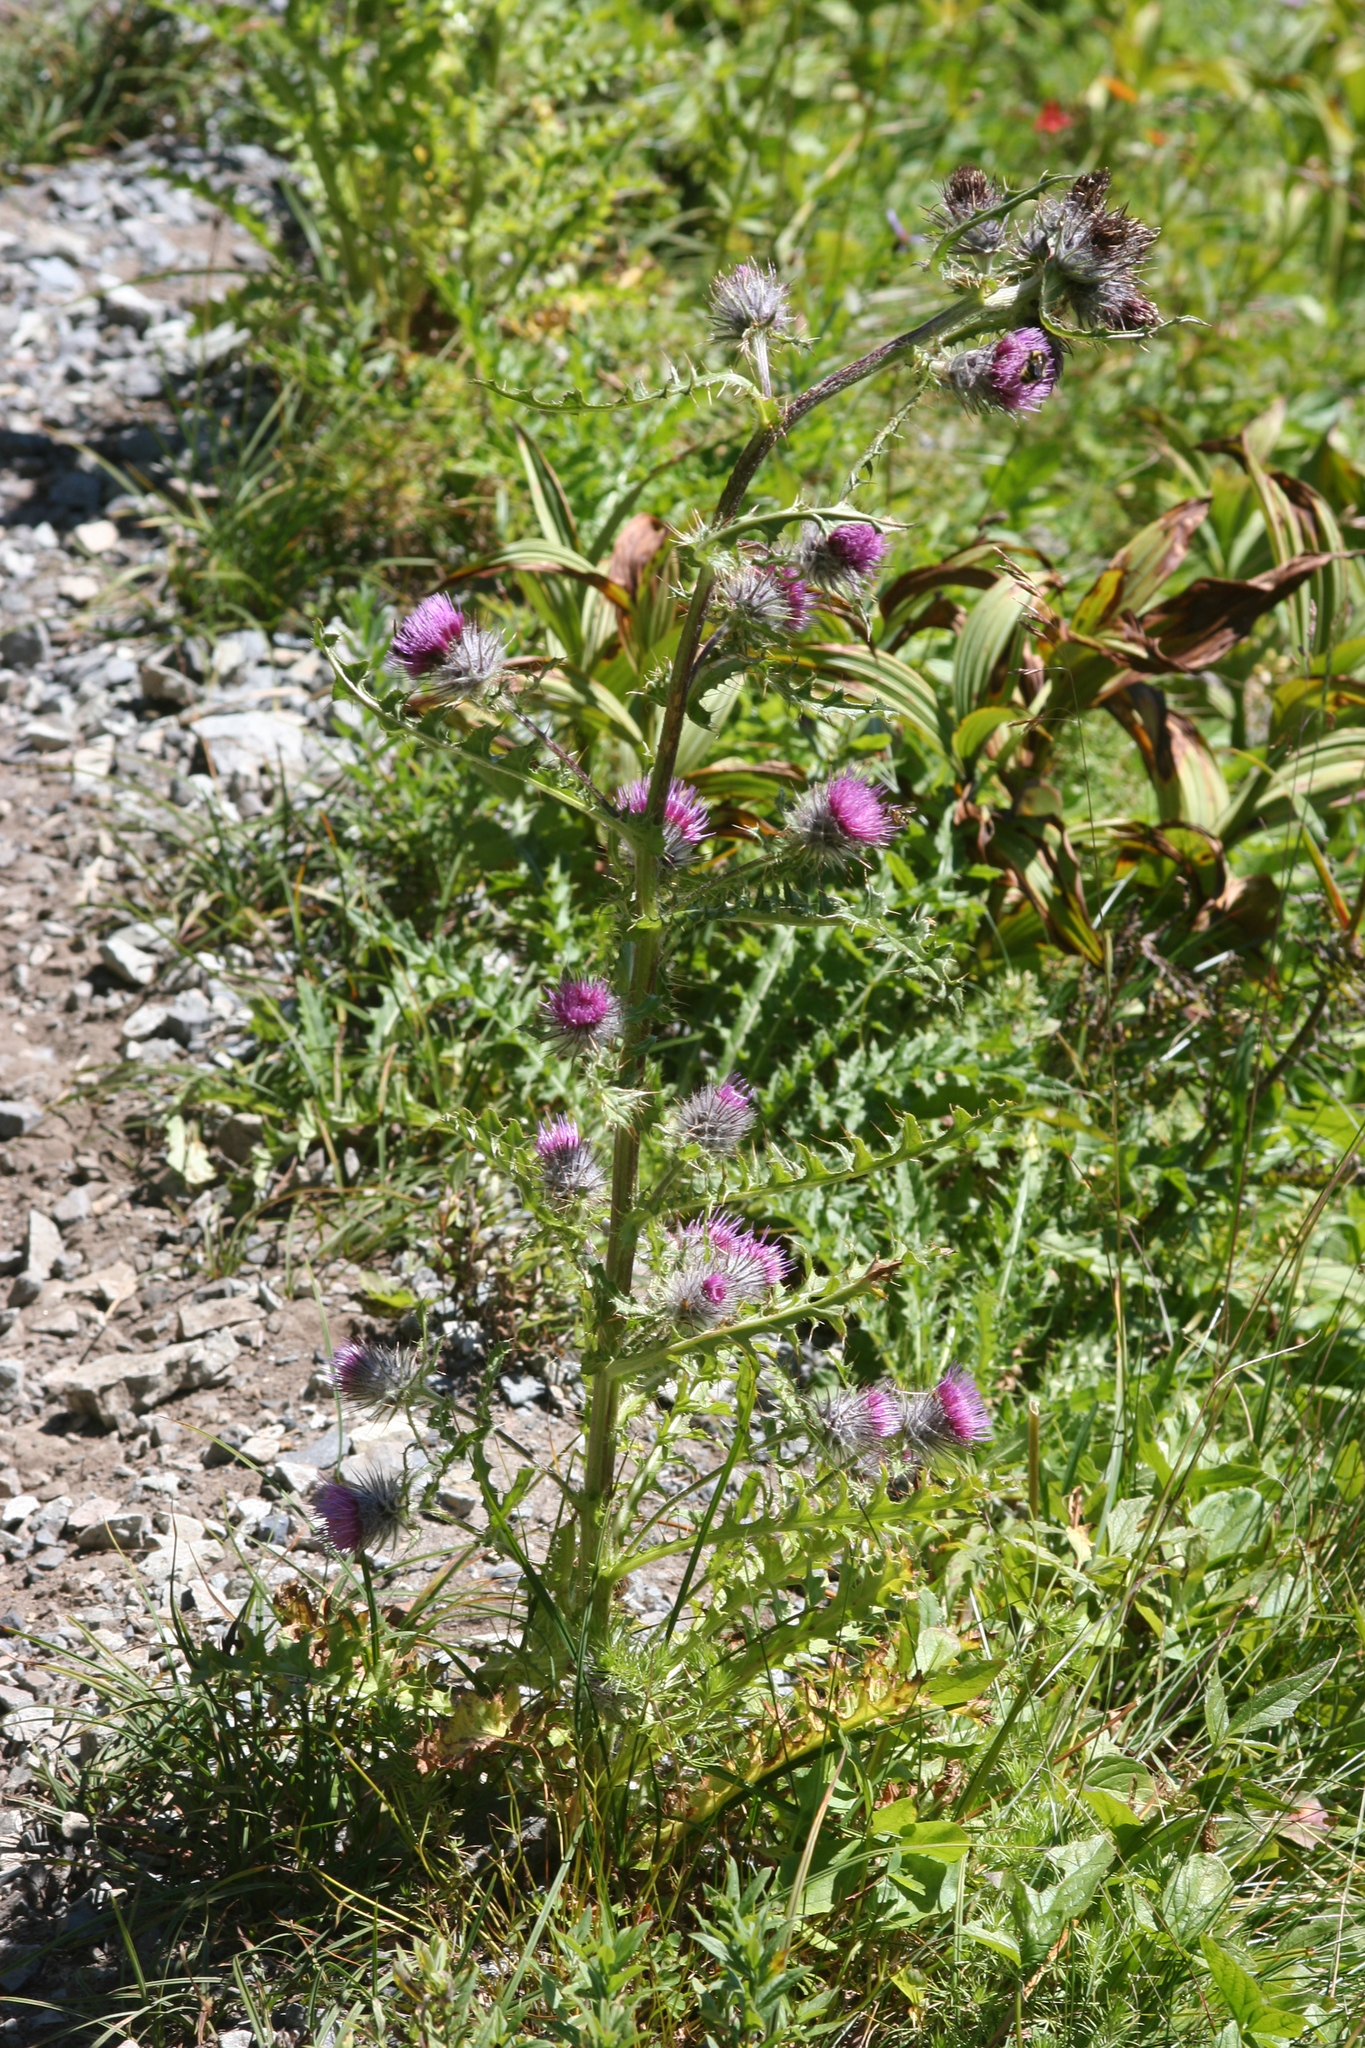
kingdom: Plantae
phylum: Tracheophyta
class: Magnoliopsida
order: Asterales
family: Asteraceae
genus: Cirsium
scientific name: Cirsium edule
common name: Indian thistle
